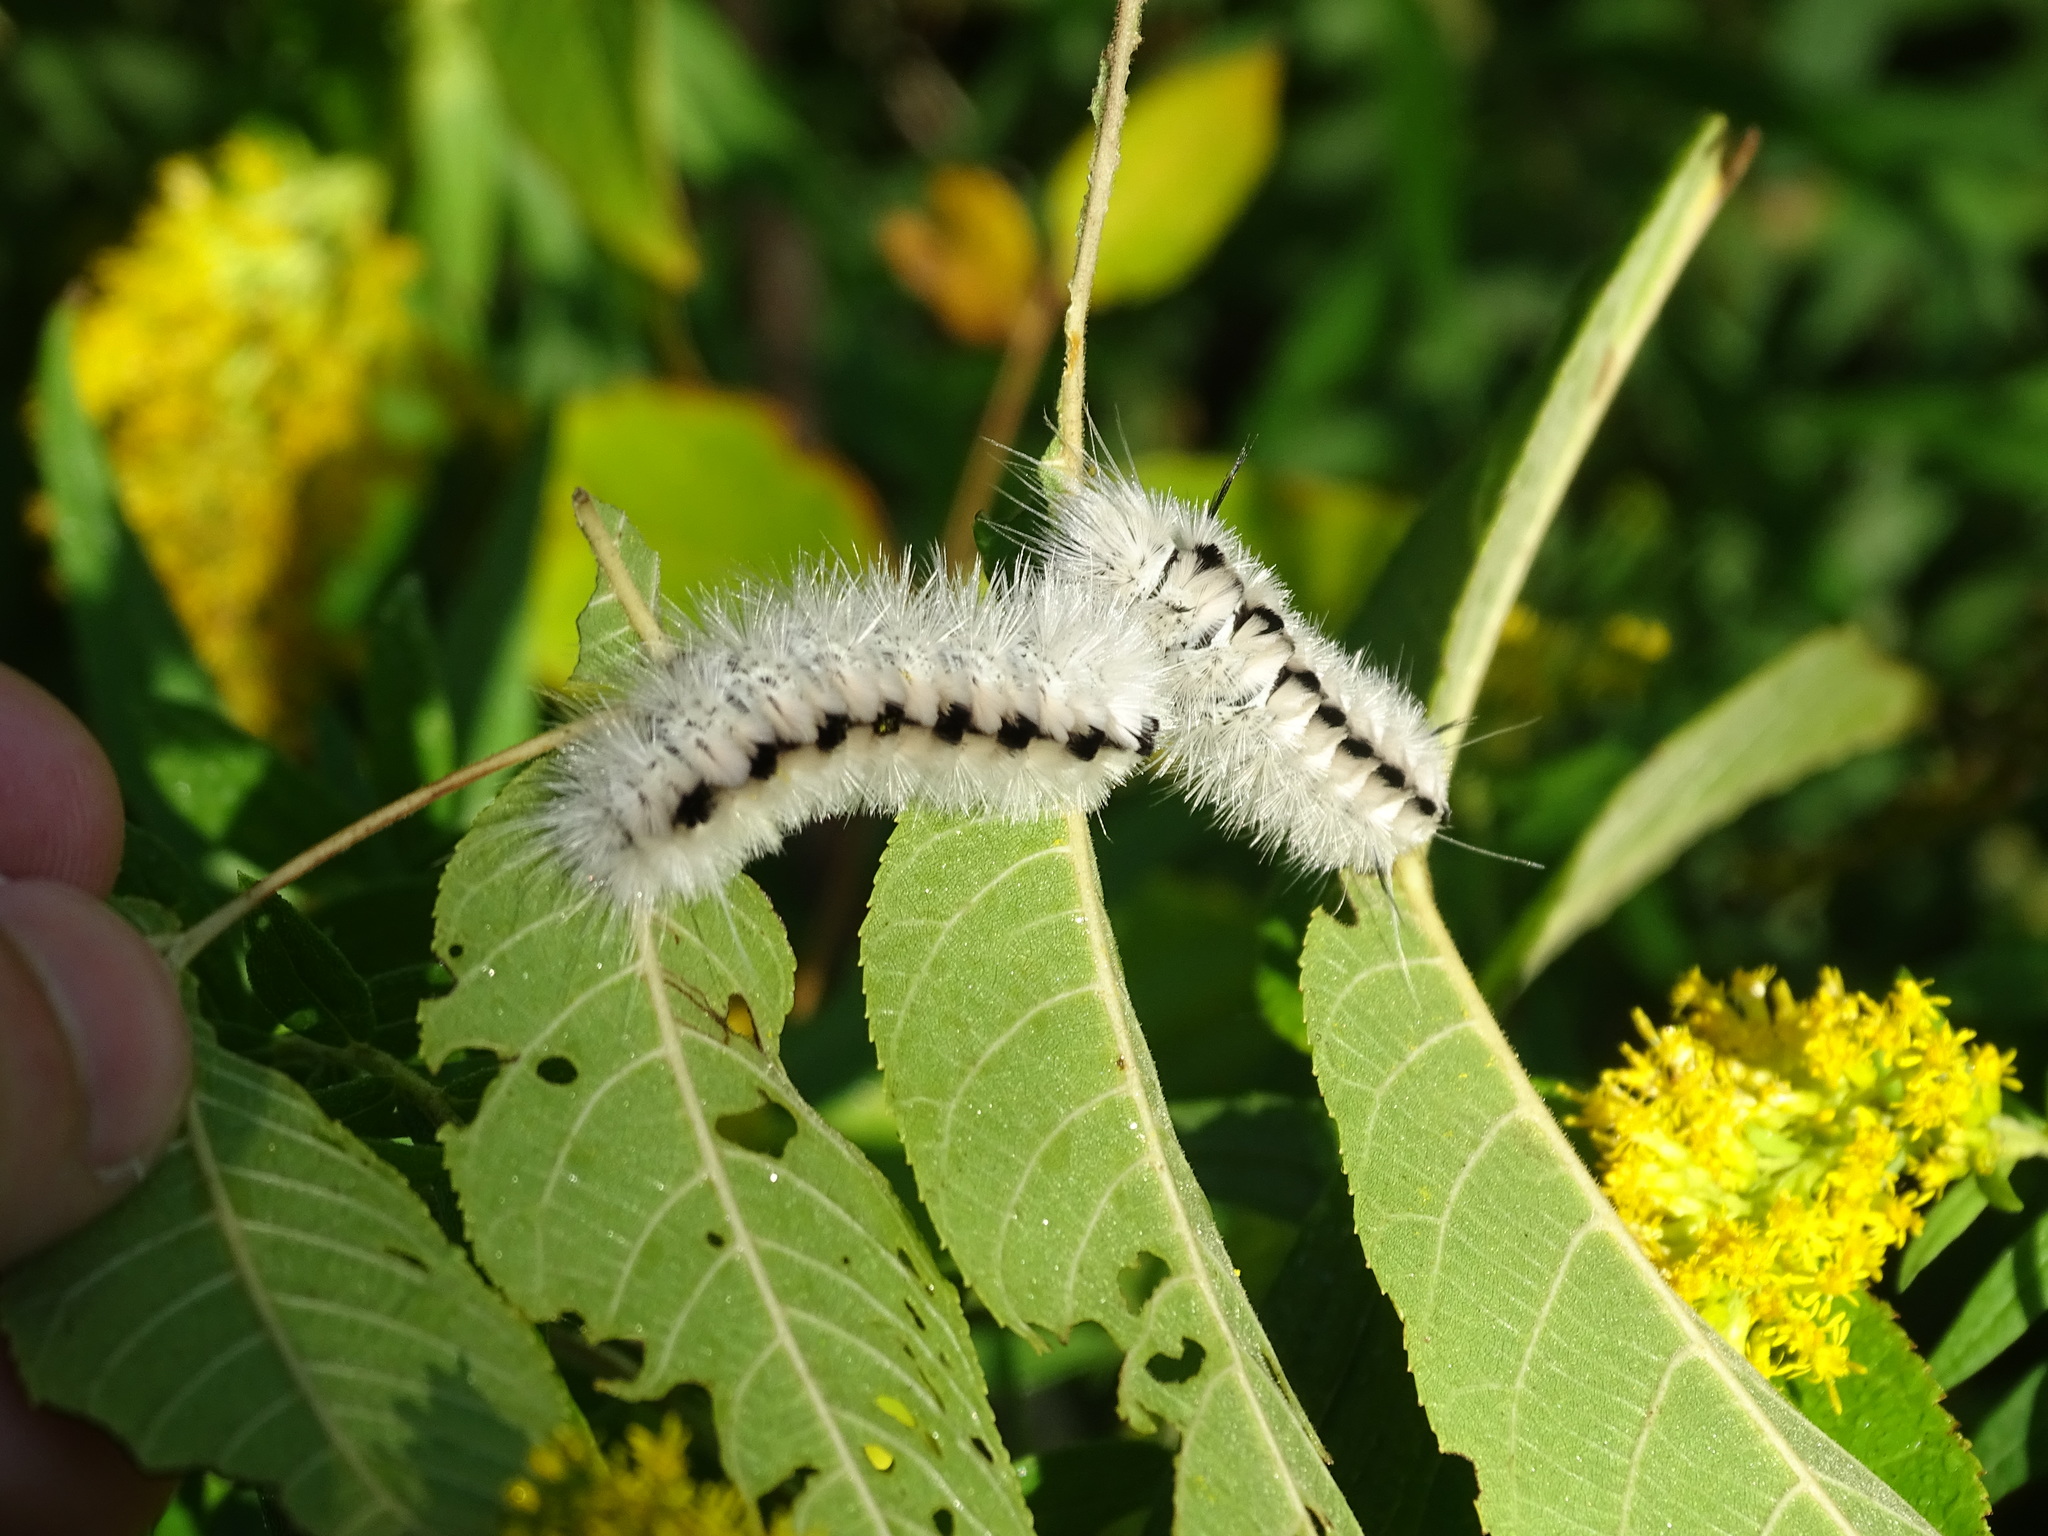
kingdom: Animalia
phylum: Arthropoda
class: Insecta
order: Lepidoptera
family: Erebidae
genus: Lophocampa
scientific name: Lophocampa caryae
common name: Hickory tussock moth
